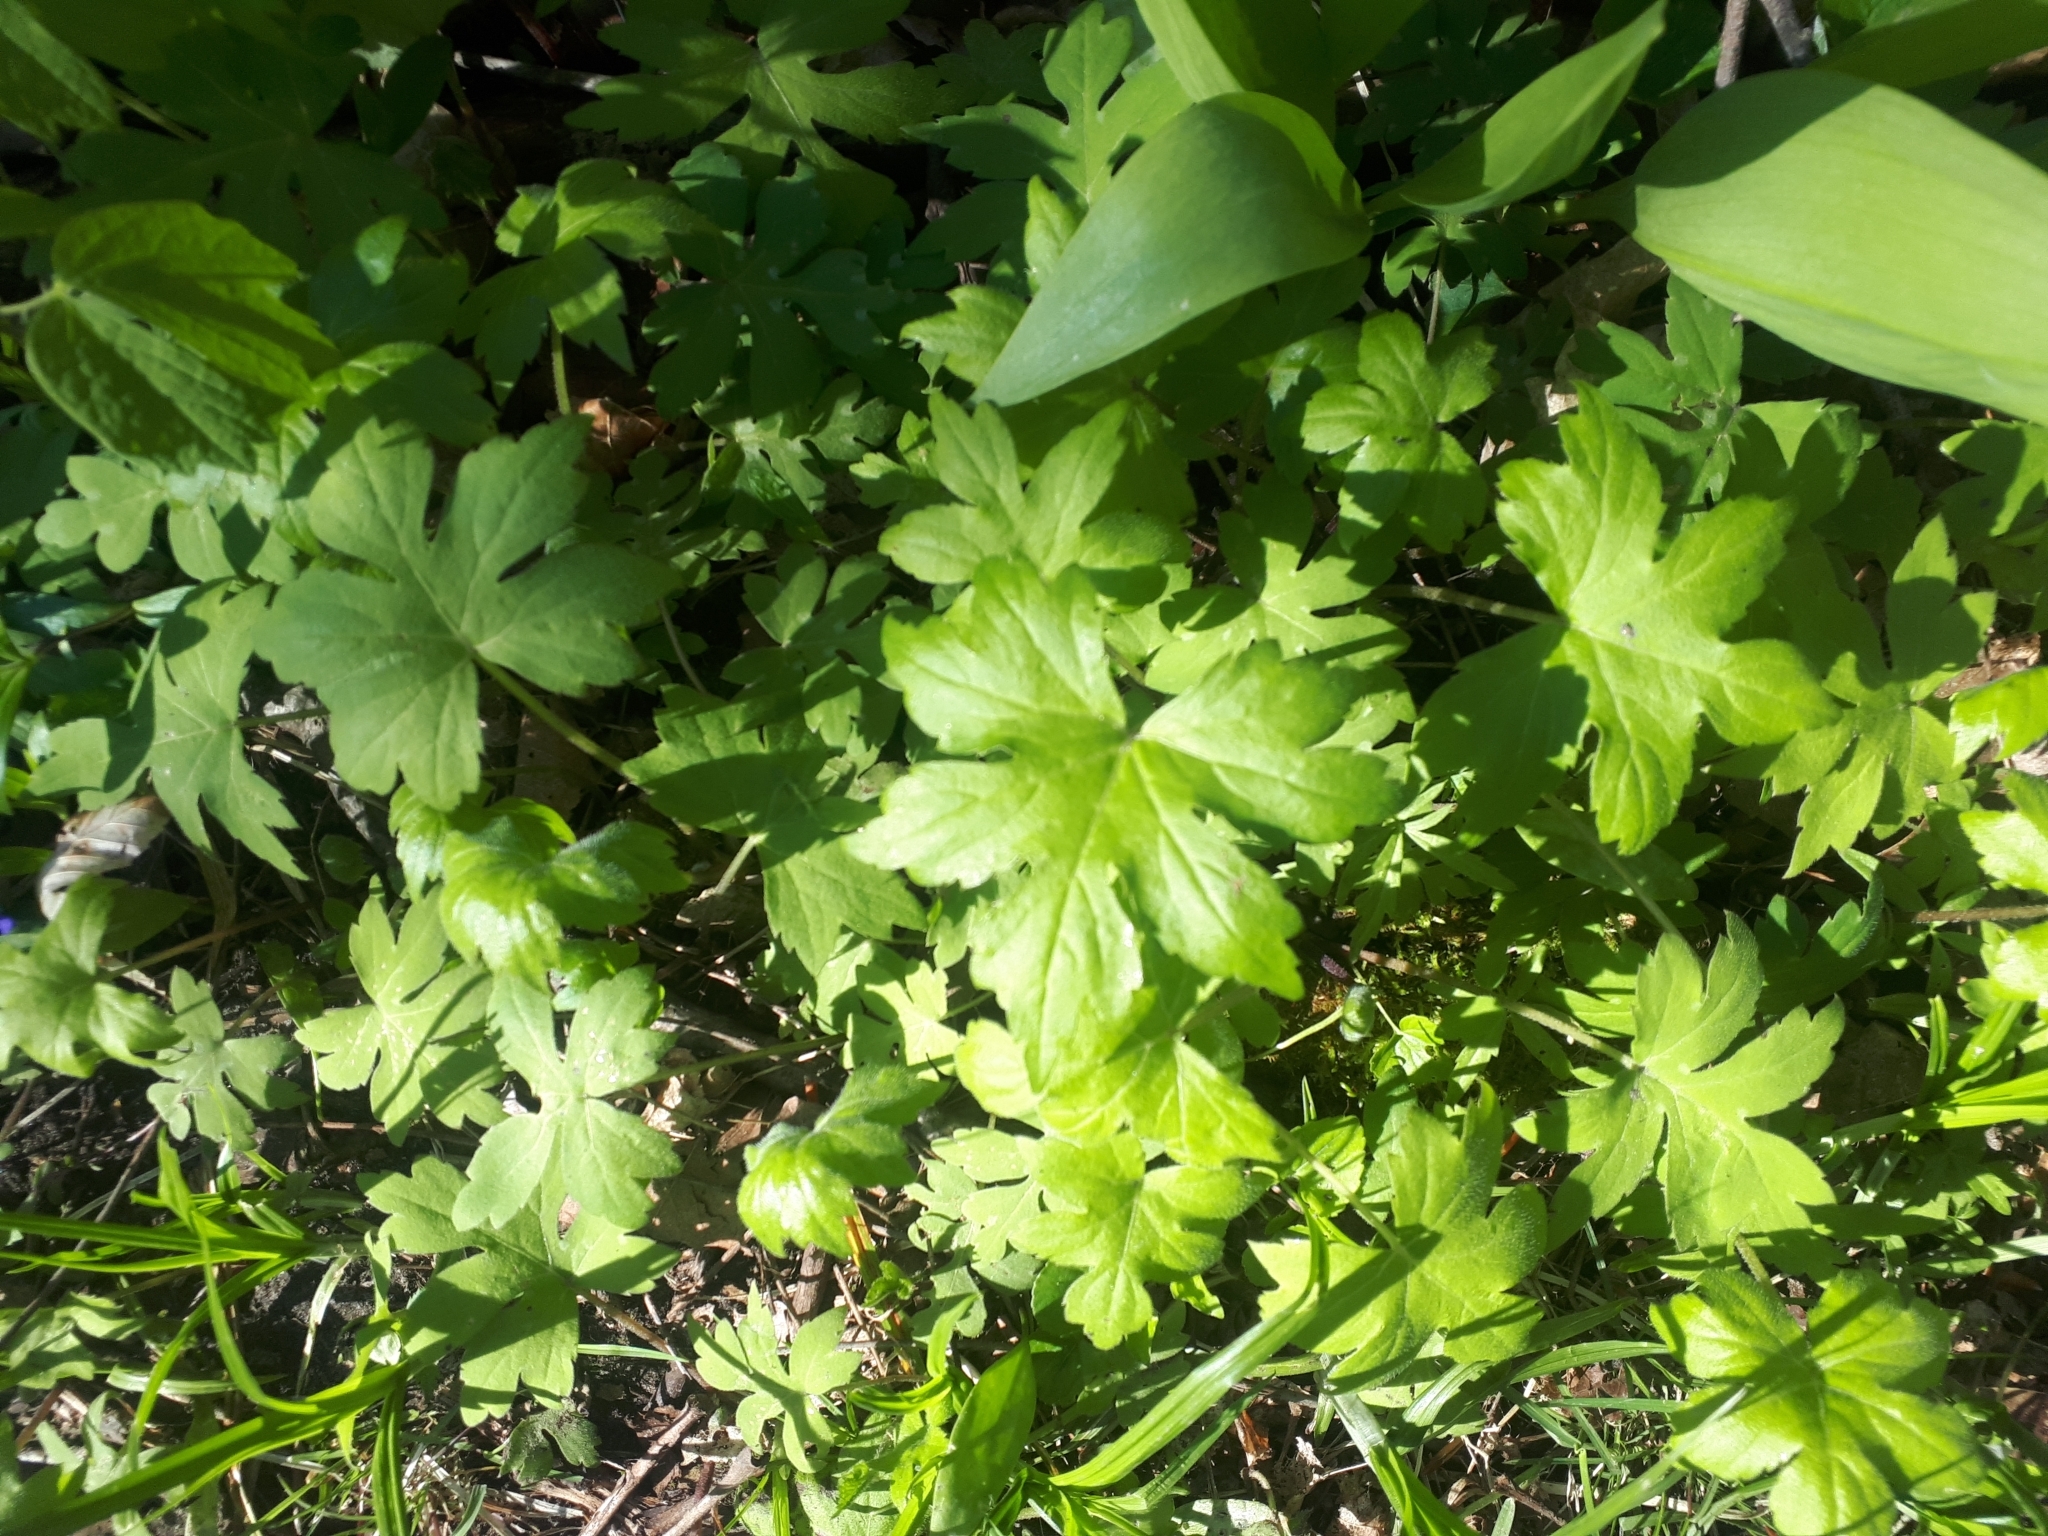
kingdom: Plantae
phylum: Tracheophyta
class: Magnoliopsida
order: Boraginales
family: Hydrophyllaceae
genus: Hydrophyllum
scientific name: Hydrophyllum canadense
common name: Canada waterleaf
